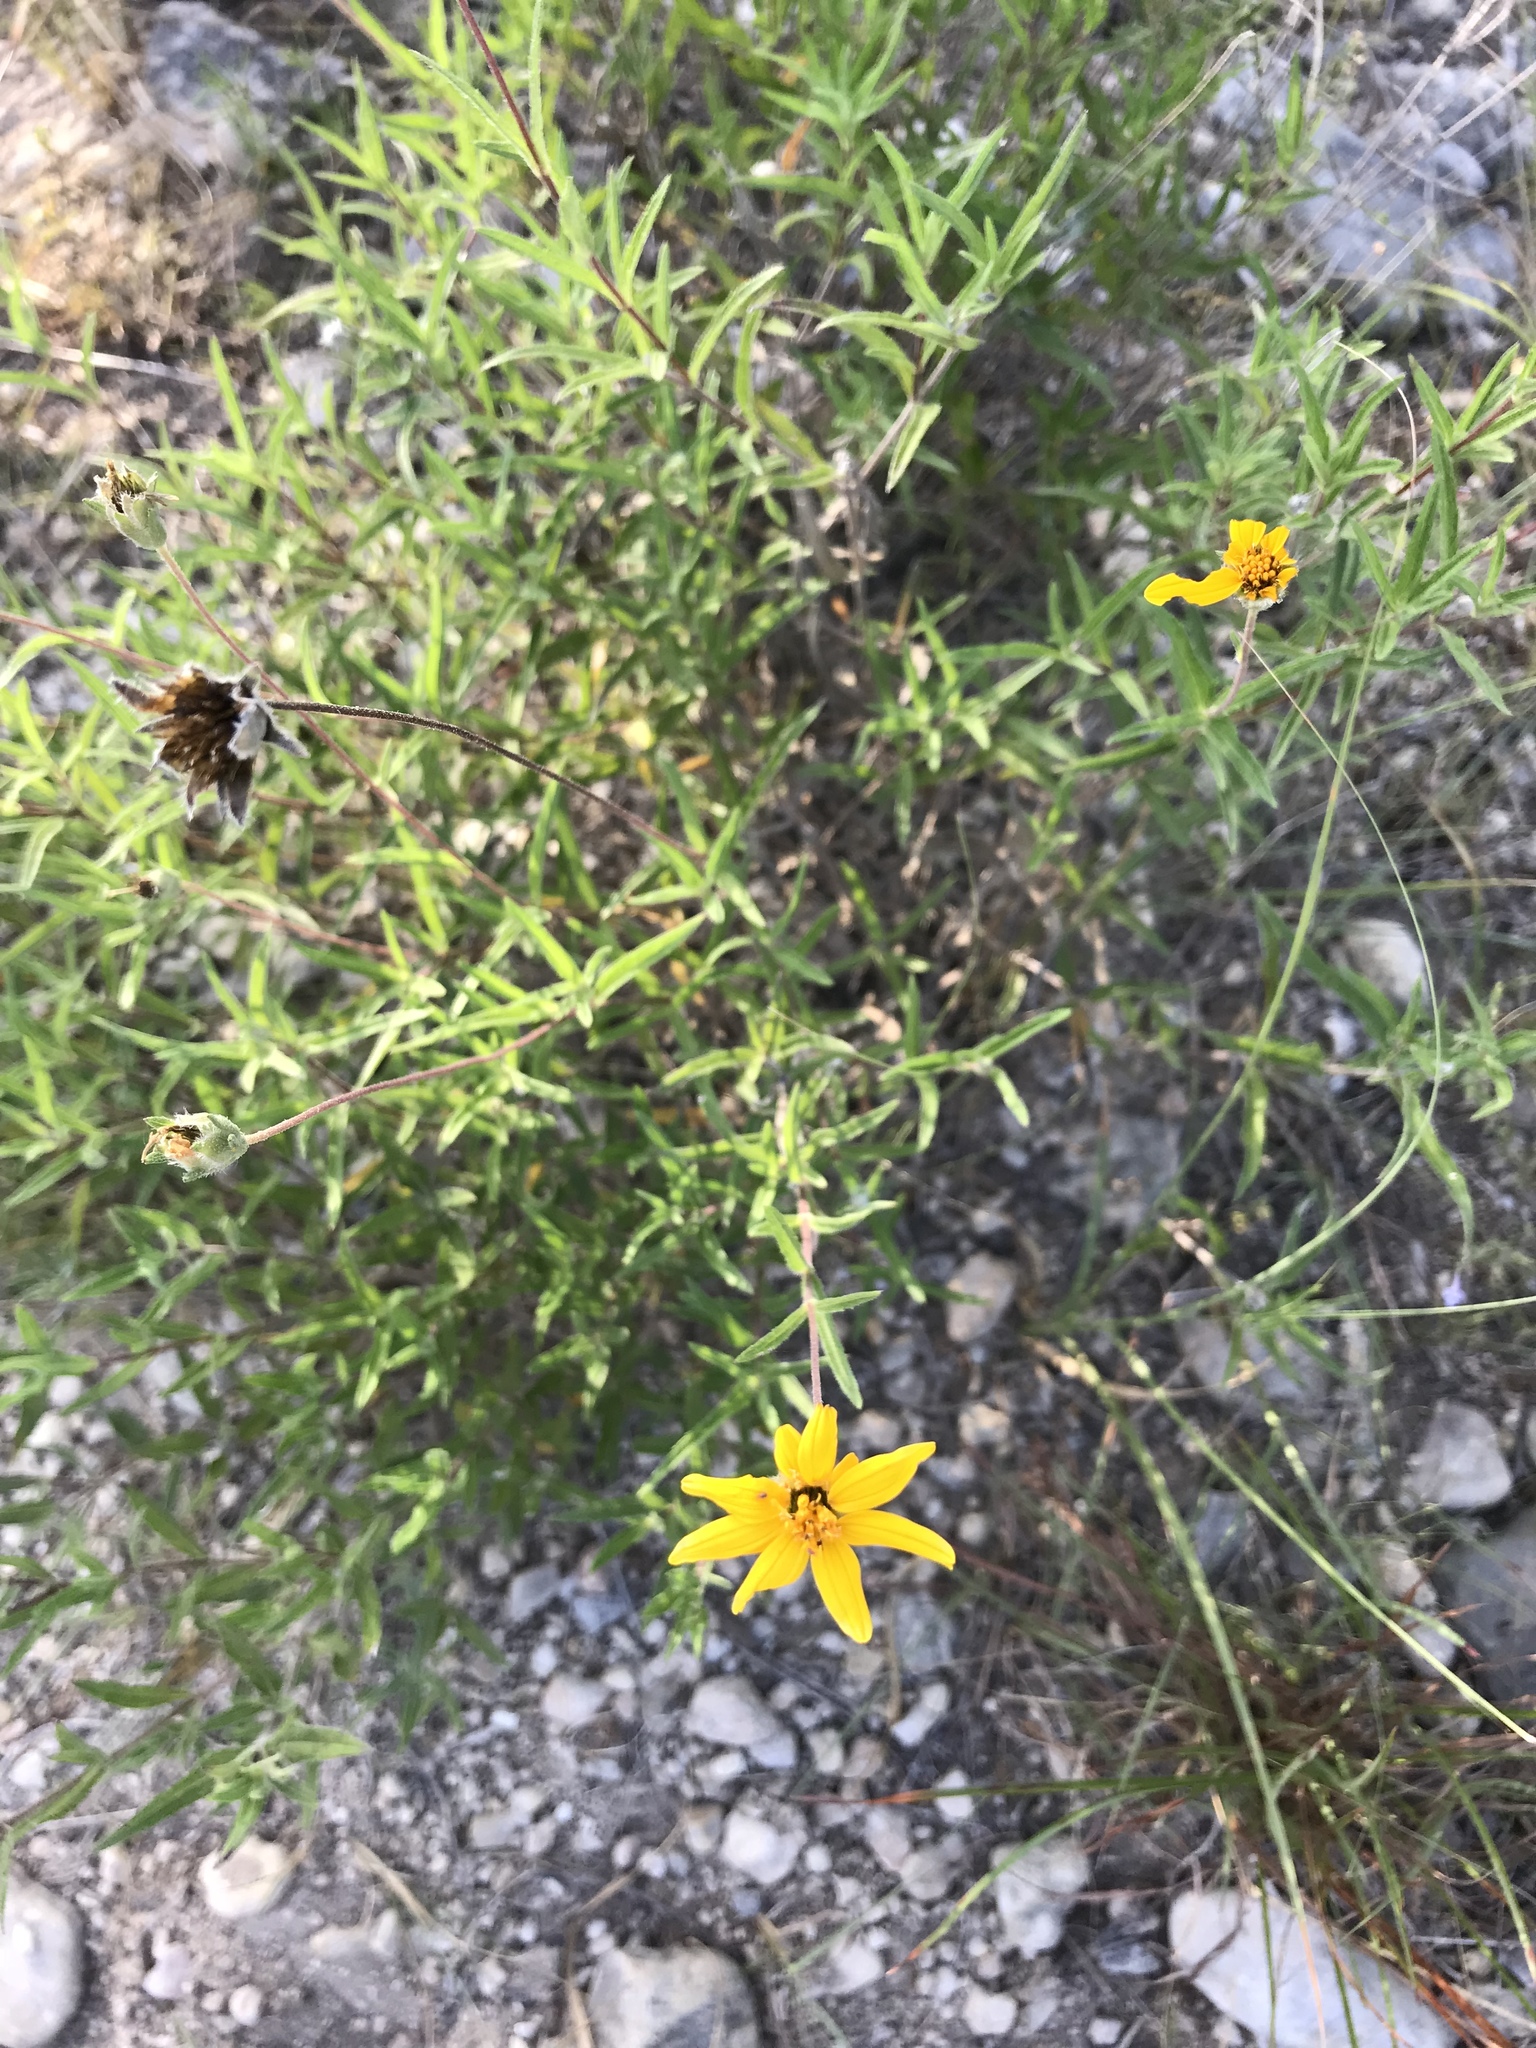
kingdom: Plantae
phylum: Tracheophyta
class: Magnoliopsida
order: Asterales
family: Asteraceae
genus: Wedelia
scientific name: Wedelia acapulcensis
